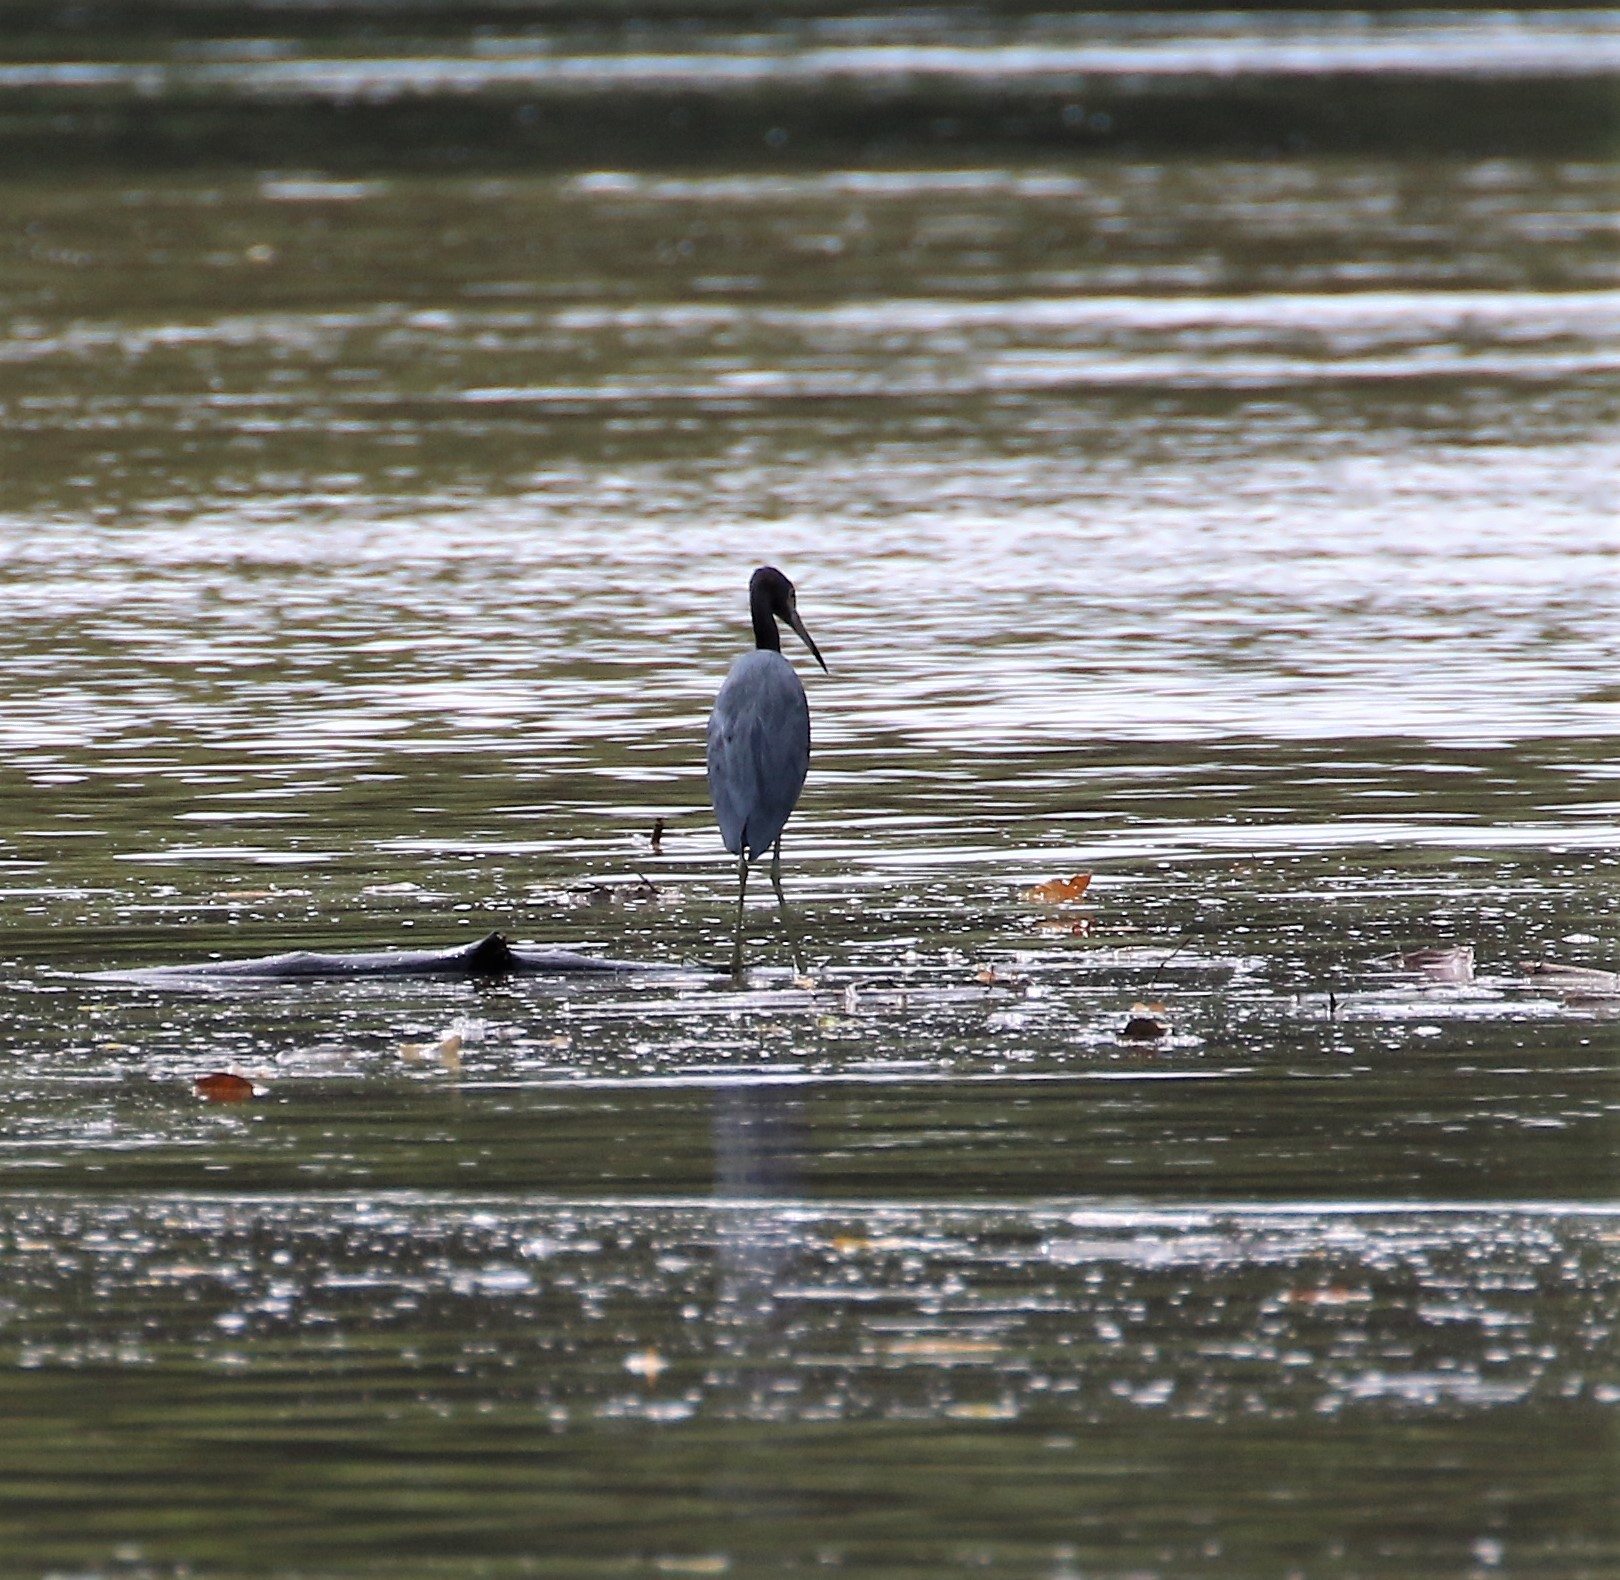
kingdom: Animalia
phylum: Chordata
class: Aves
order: Pelecaniformes
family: Ardeidae
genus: Egretta
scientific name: Egretta caerulea
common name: Little blue heron
